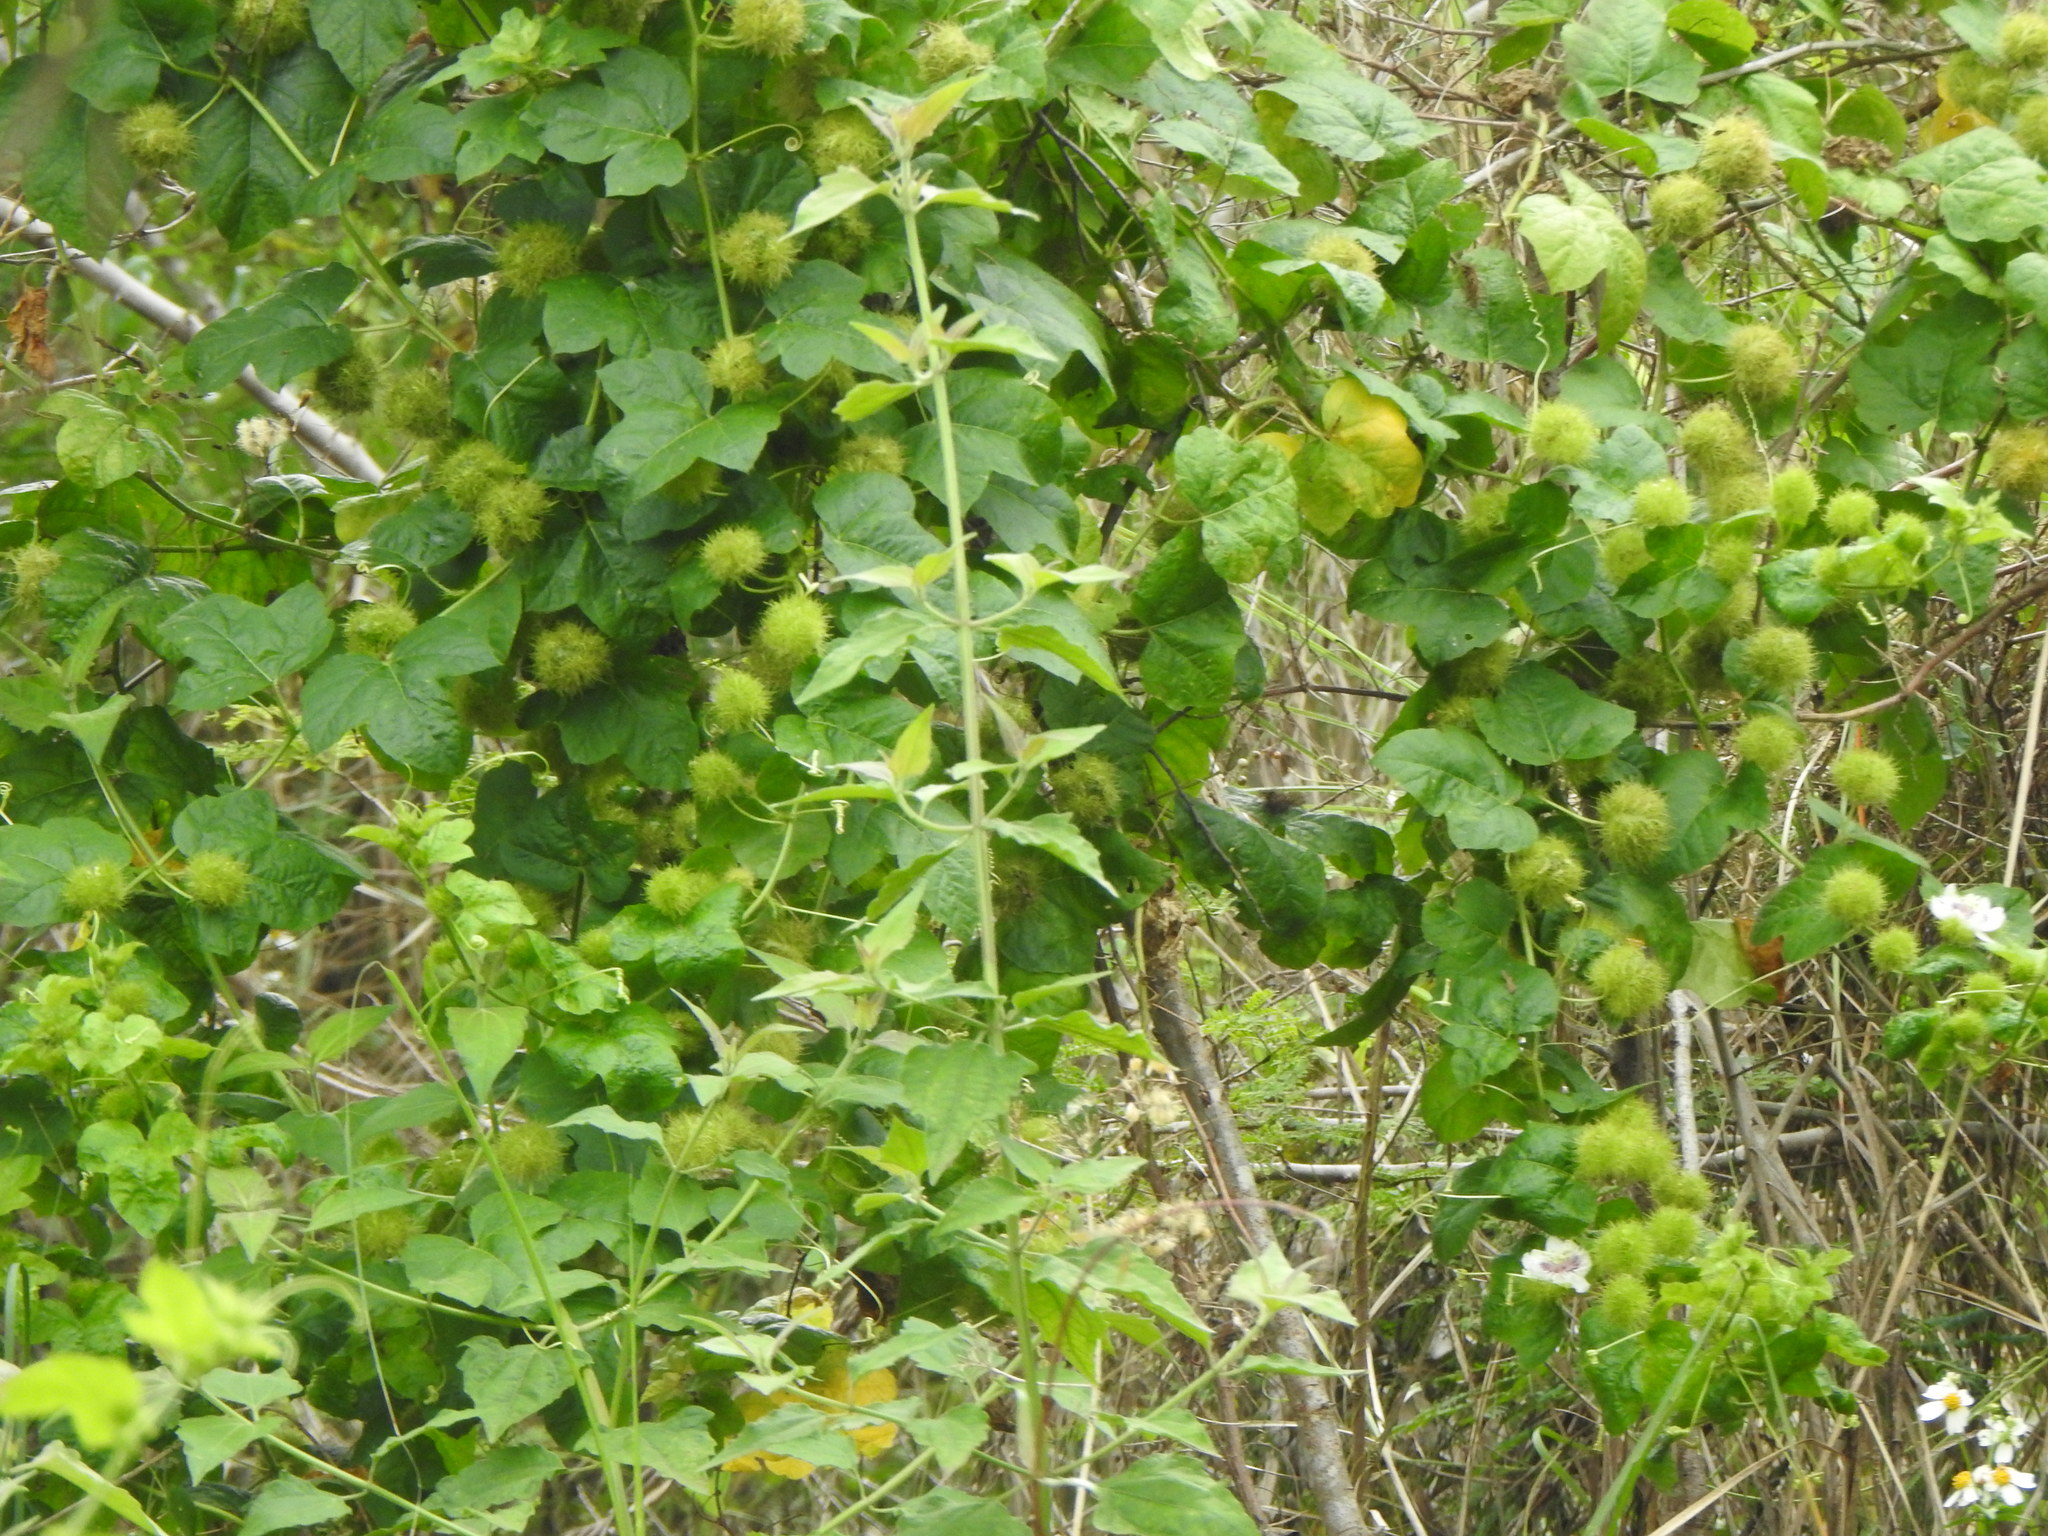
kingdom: Plantae
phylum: Tracheophyta
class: Magnoliopsida
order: Malpighiales
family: Passifloraceae
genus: Passiflora
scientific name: Passiflora vesicaria
